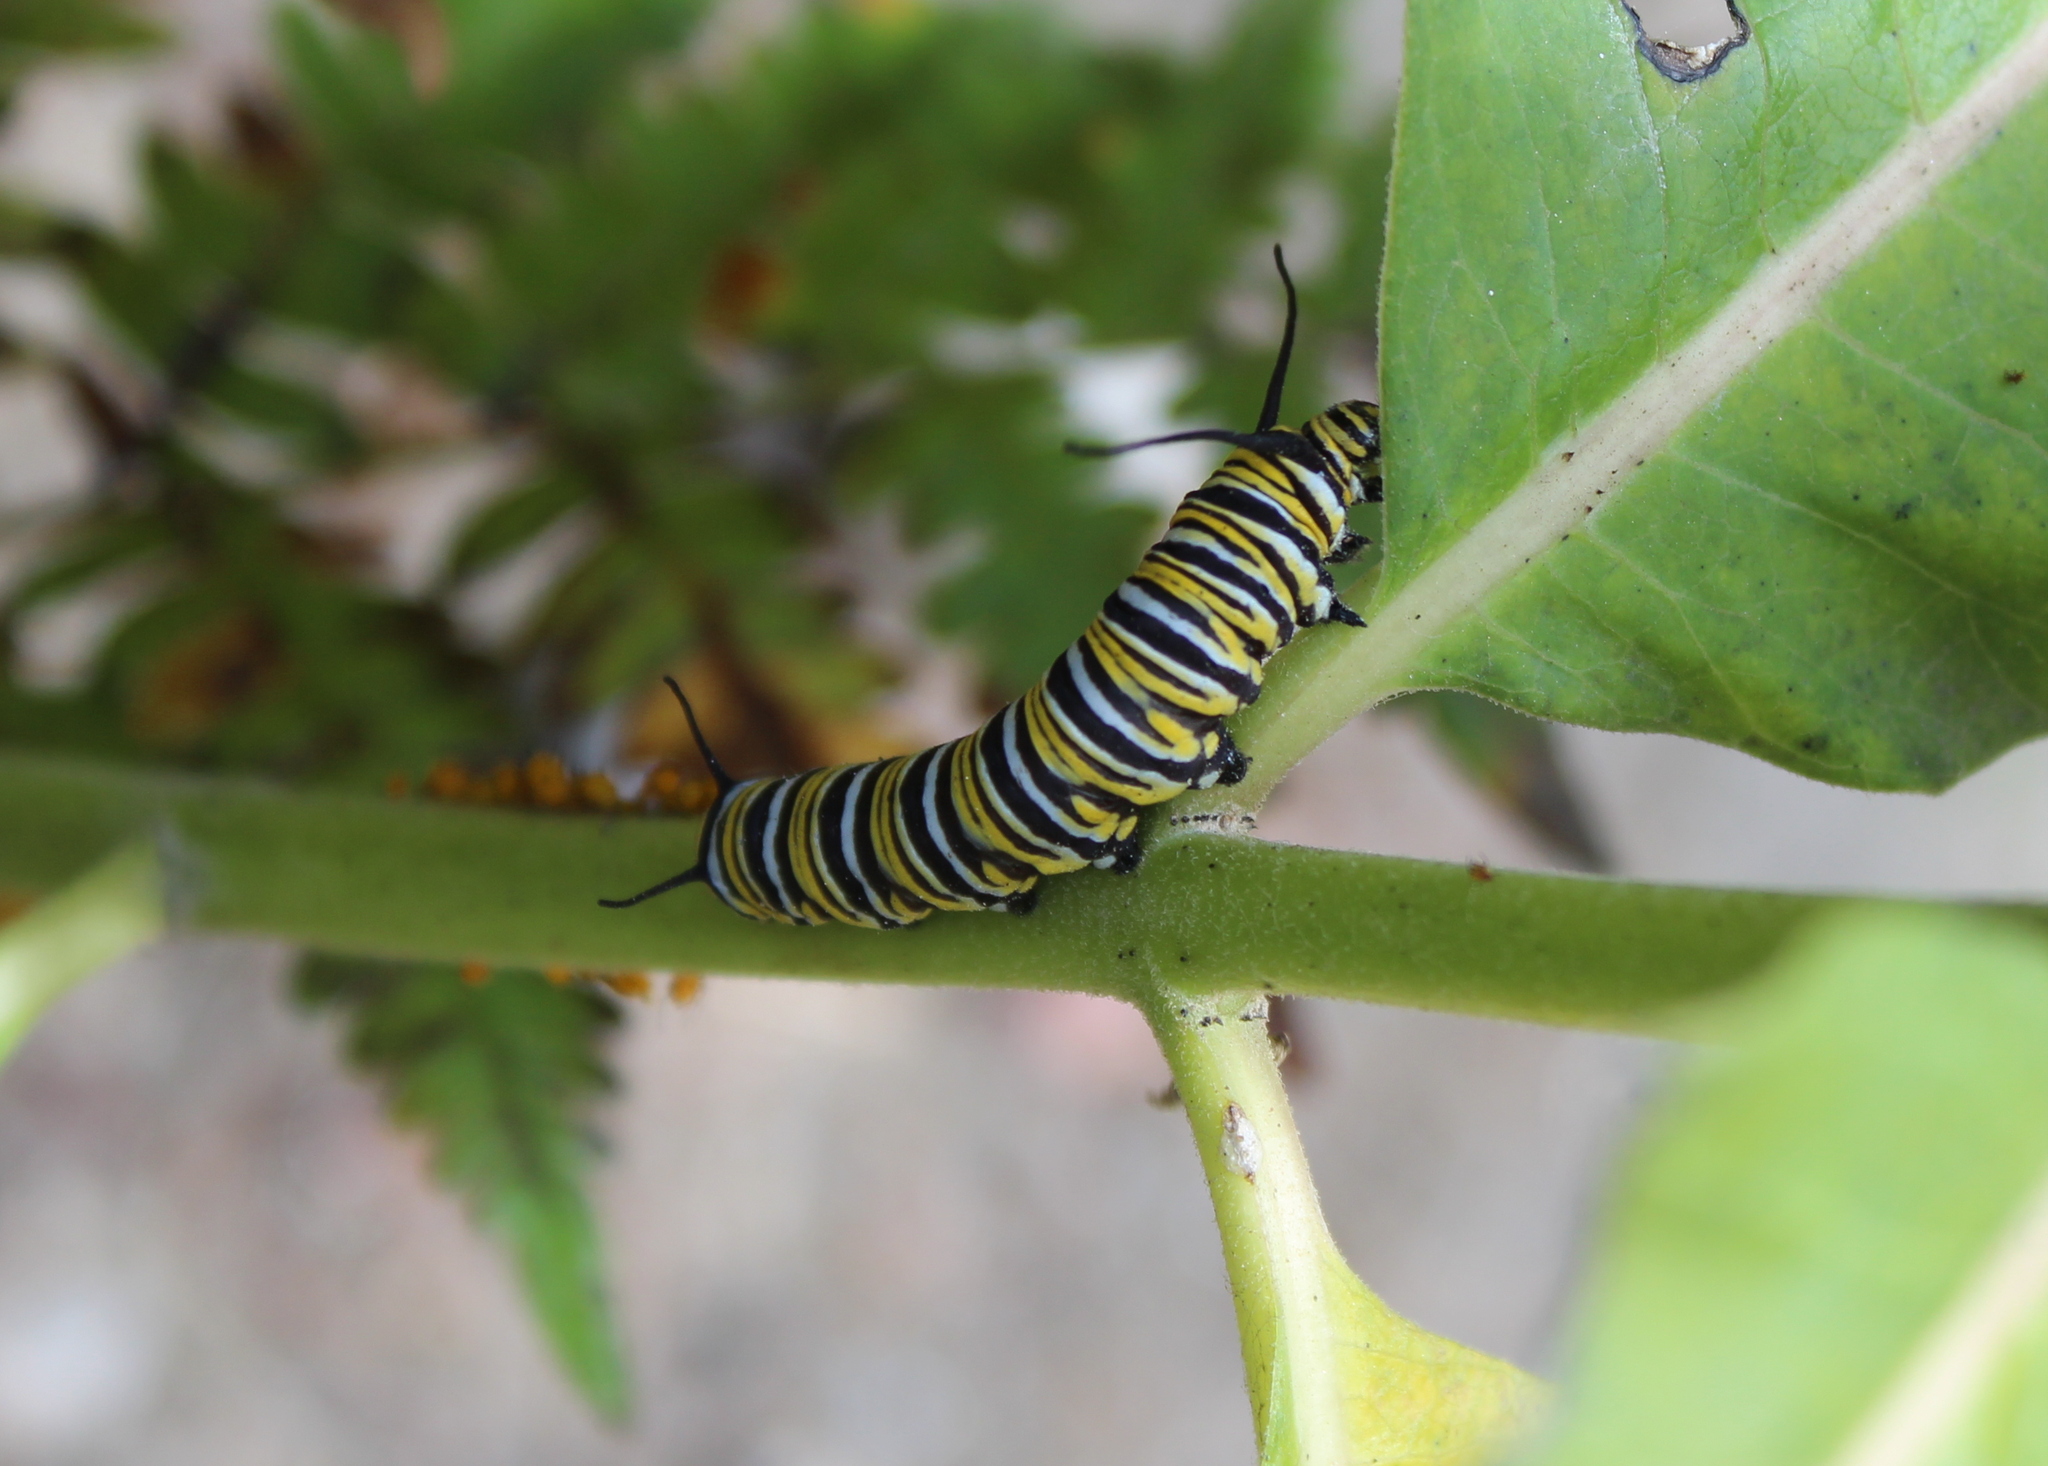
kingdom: Animalia
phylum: Arthropoda
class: Insecta
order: Lepidoptera
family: Nymphalidae
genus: Danaus
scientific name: Danaus plexippus
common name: Monarch
